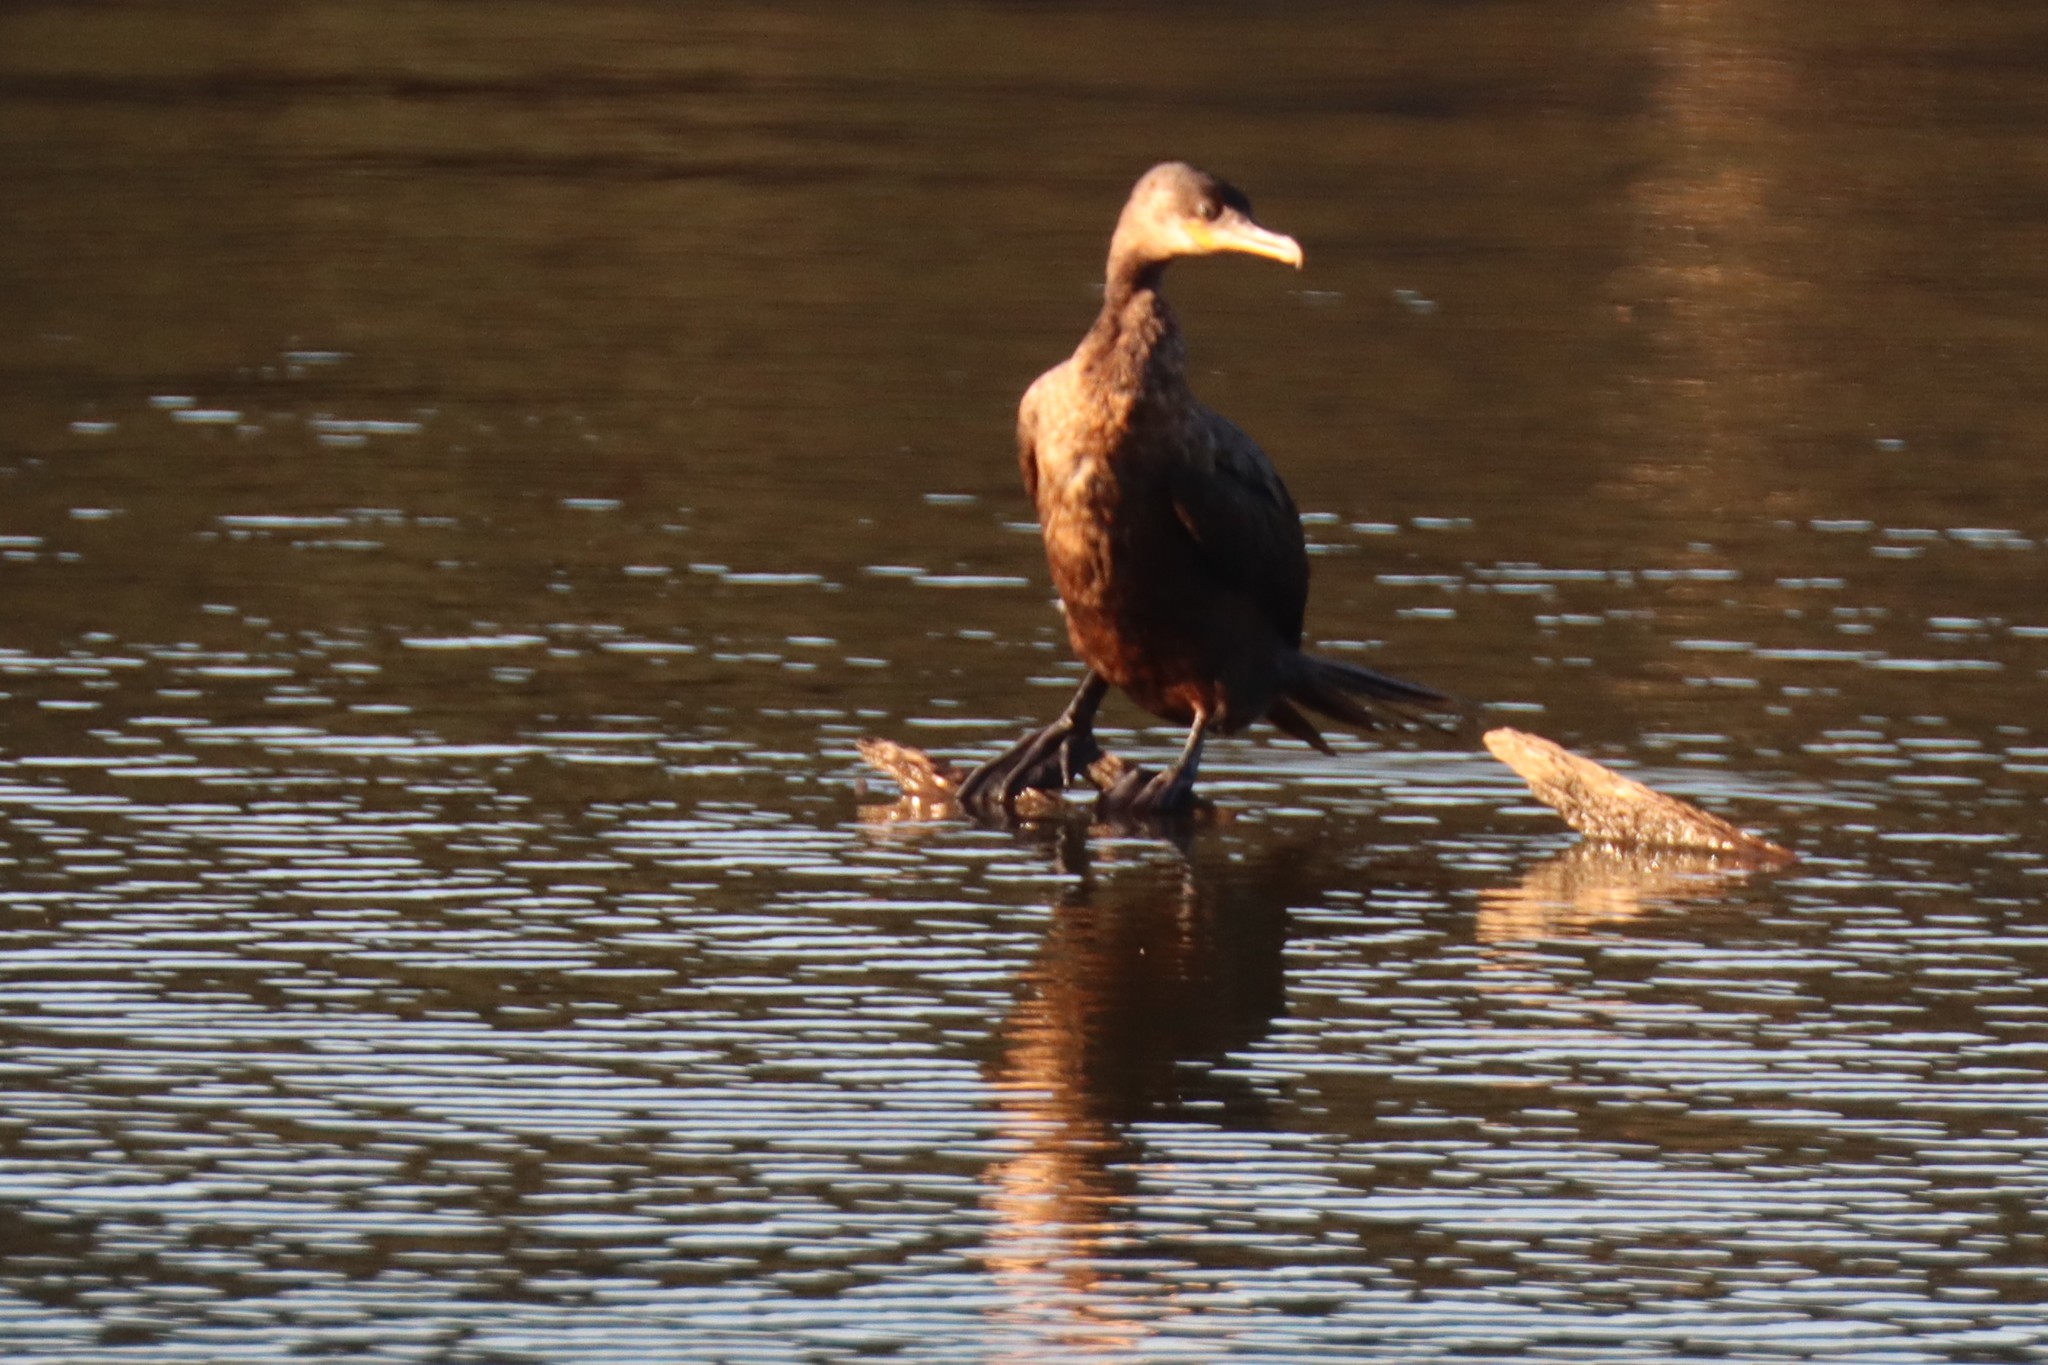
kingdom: Animalia
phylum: Chordata
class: Aves
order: Suliformes
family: Phalacrocoracidae
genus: Phalacrocorax
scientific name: Phalacrocorax brasilianus
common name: Neotropic cormorant
